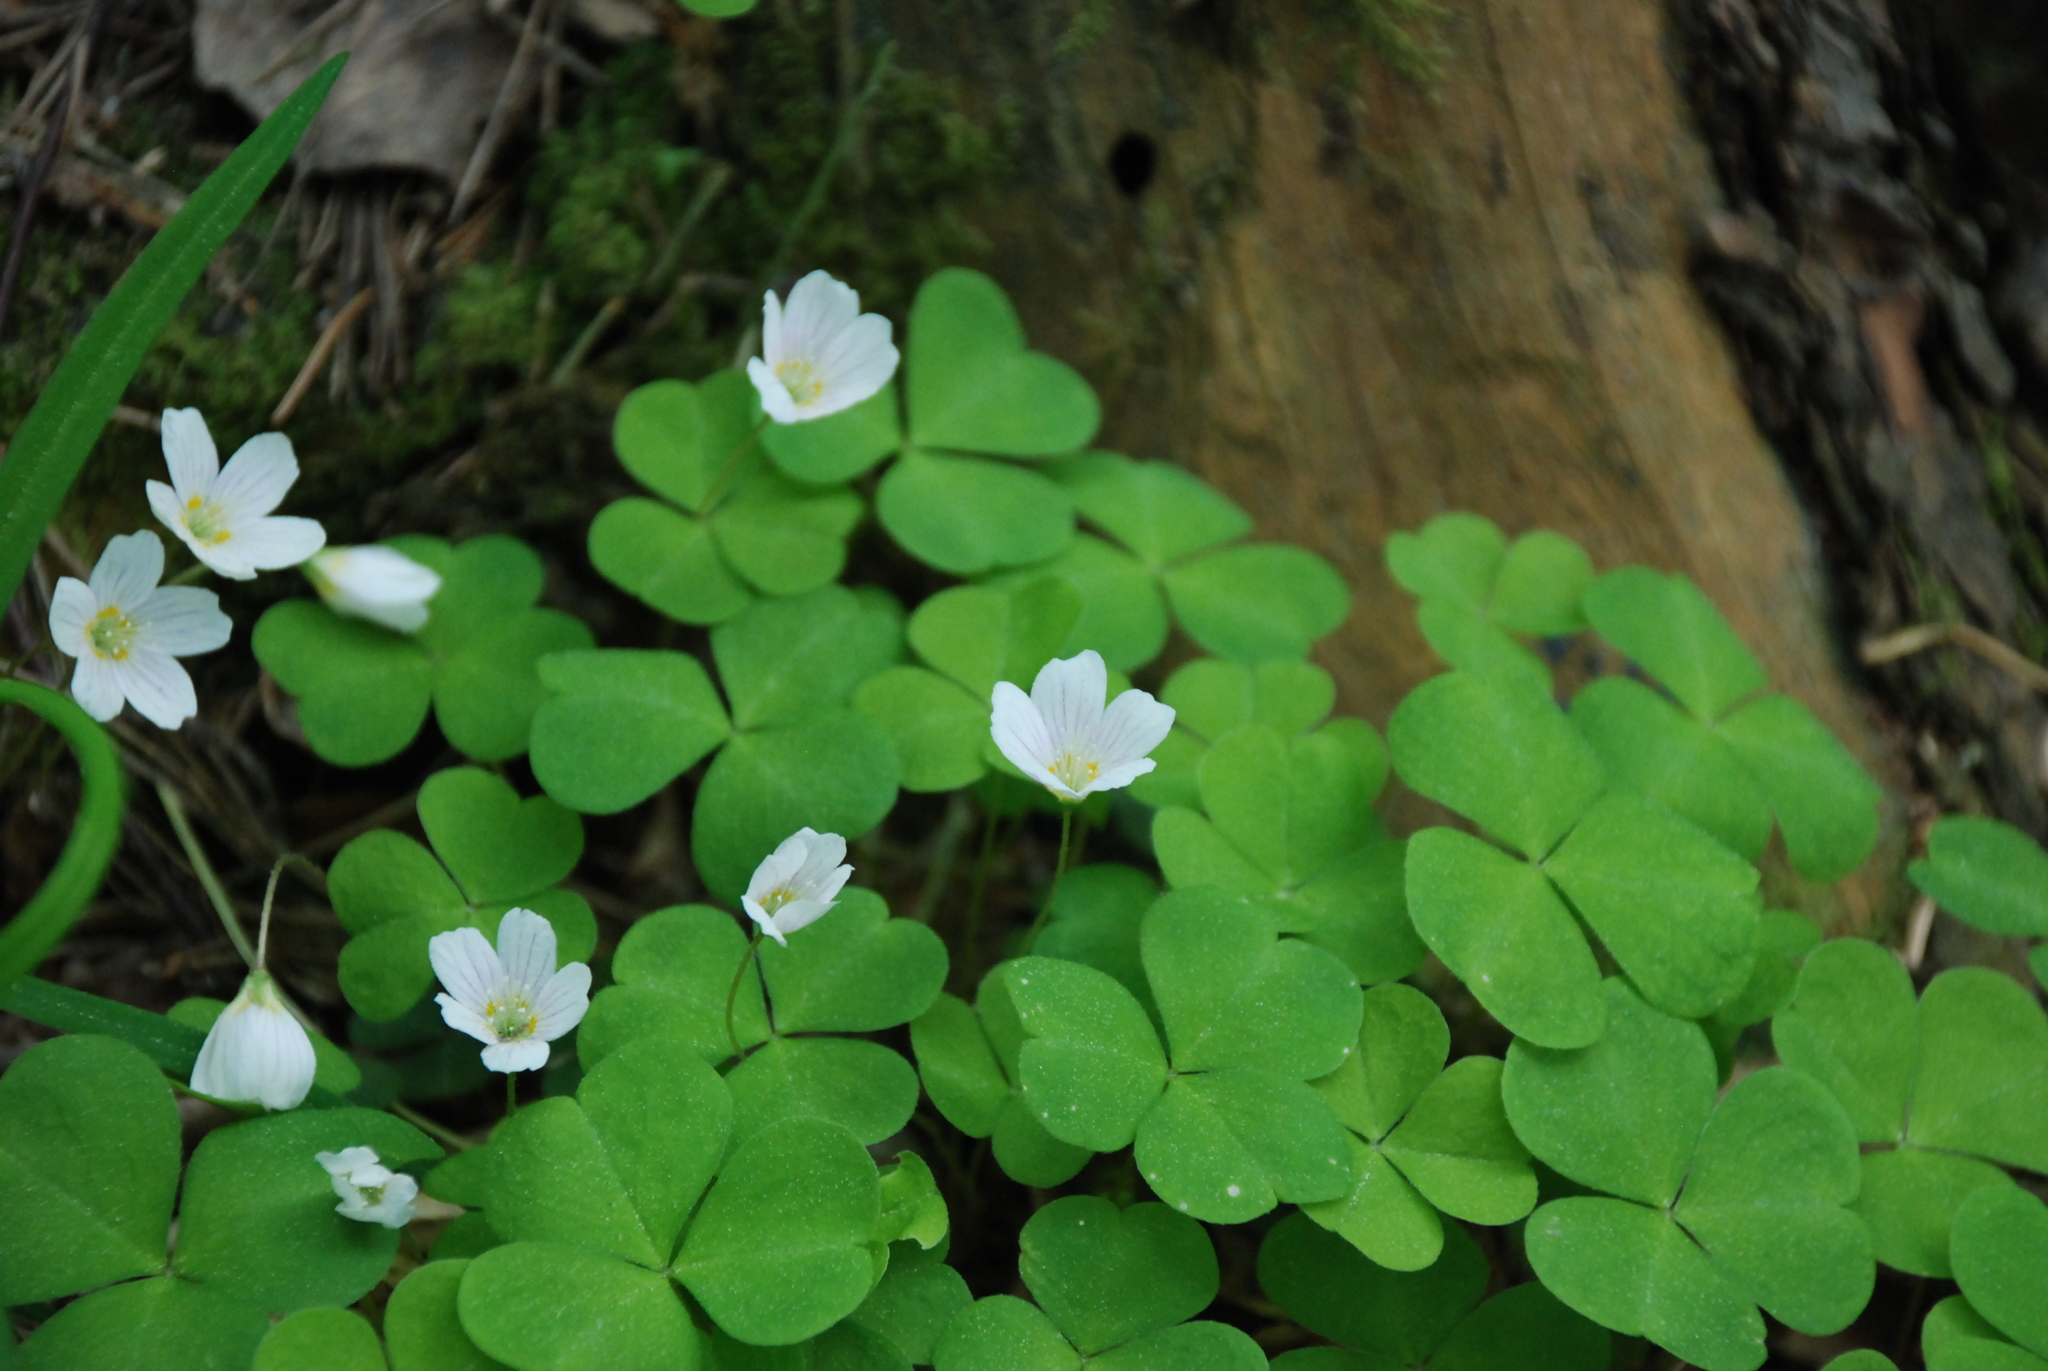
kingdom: Plantae
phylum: Tracheophyta
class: Magnoliopsida
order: Oxalidales
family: Oxalidaceae
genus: Oxalis
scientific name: Oxalis acetosella
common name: Wood-sorrel
